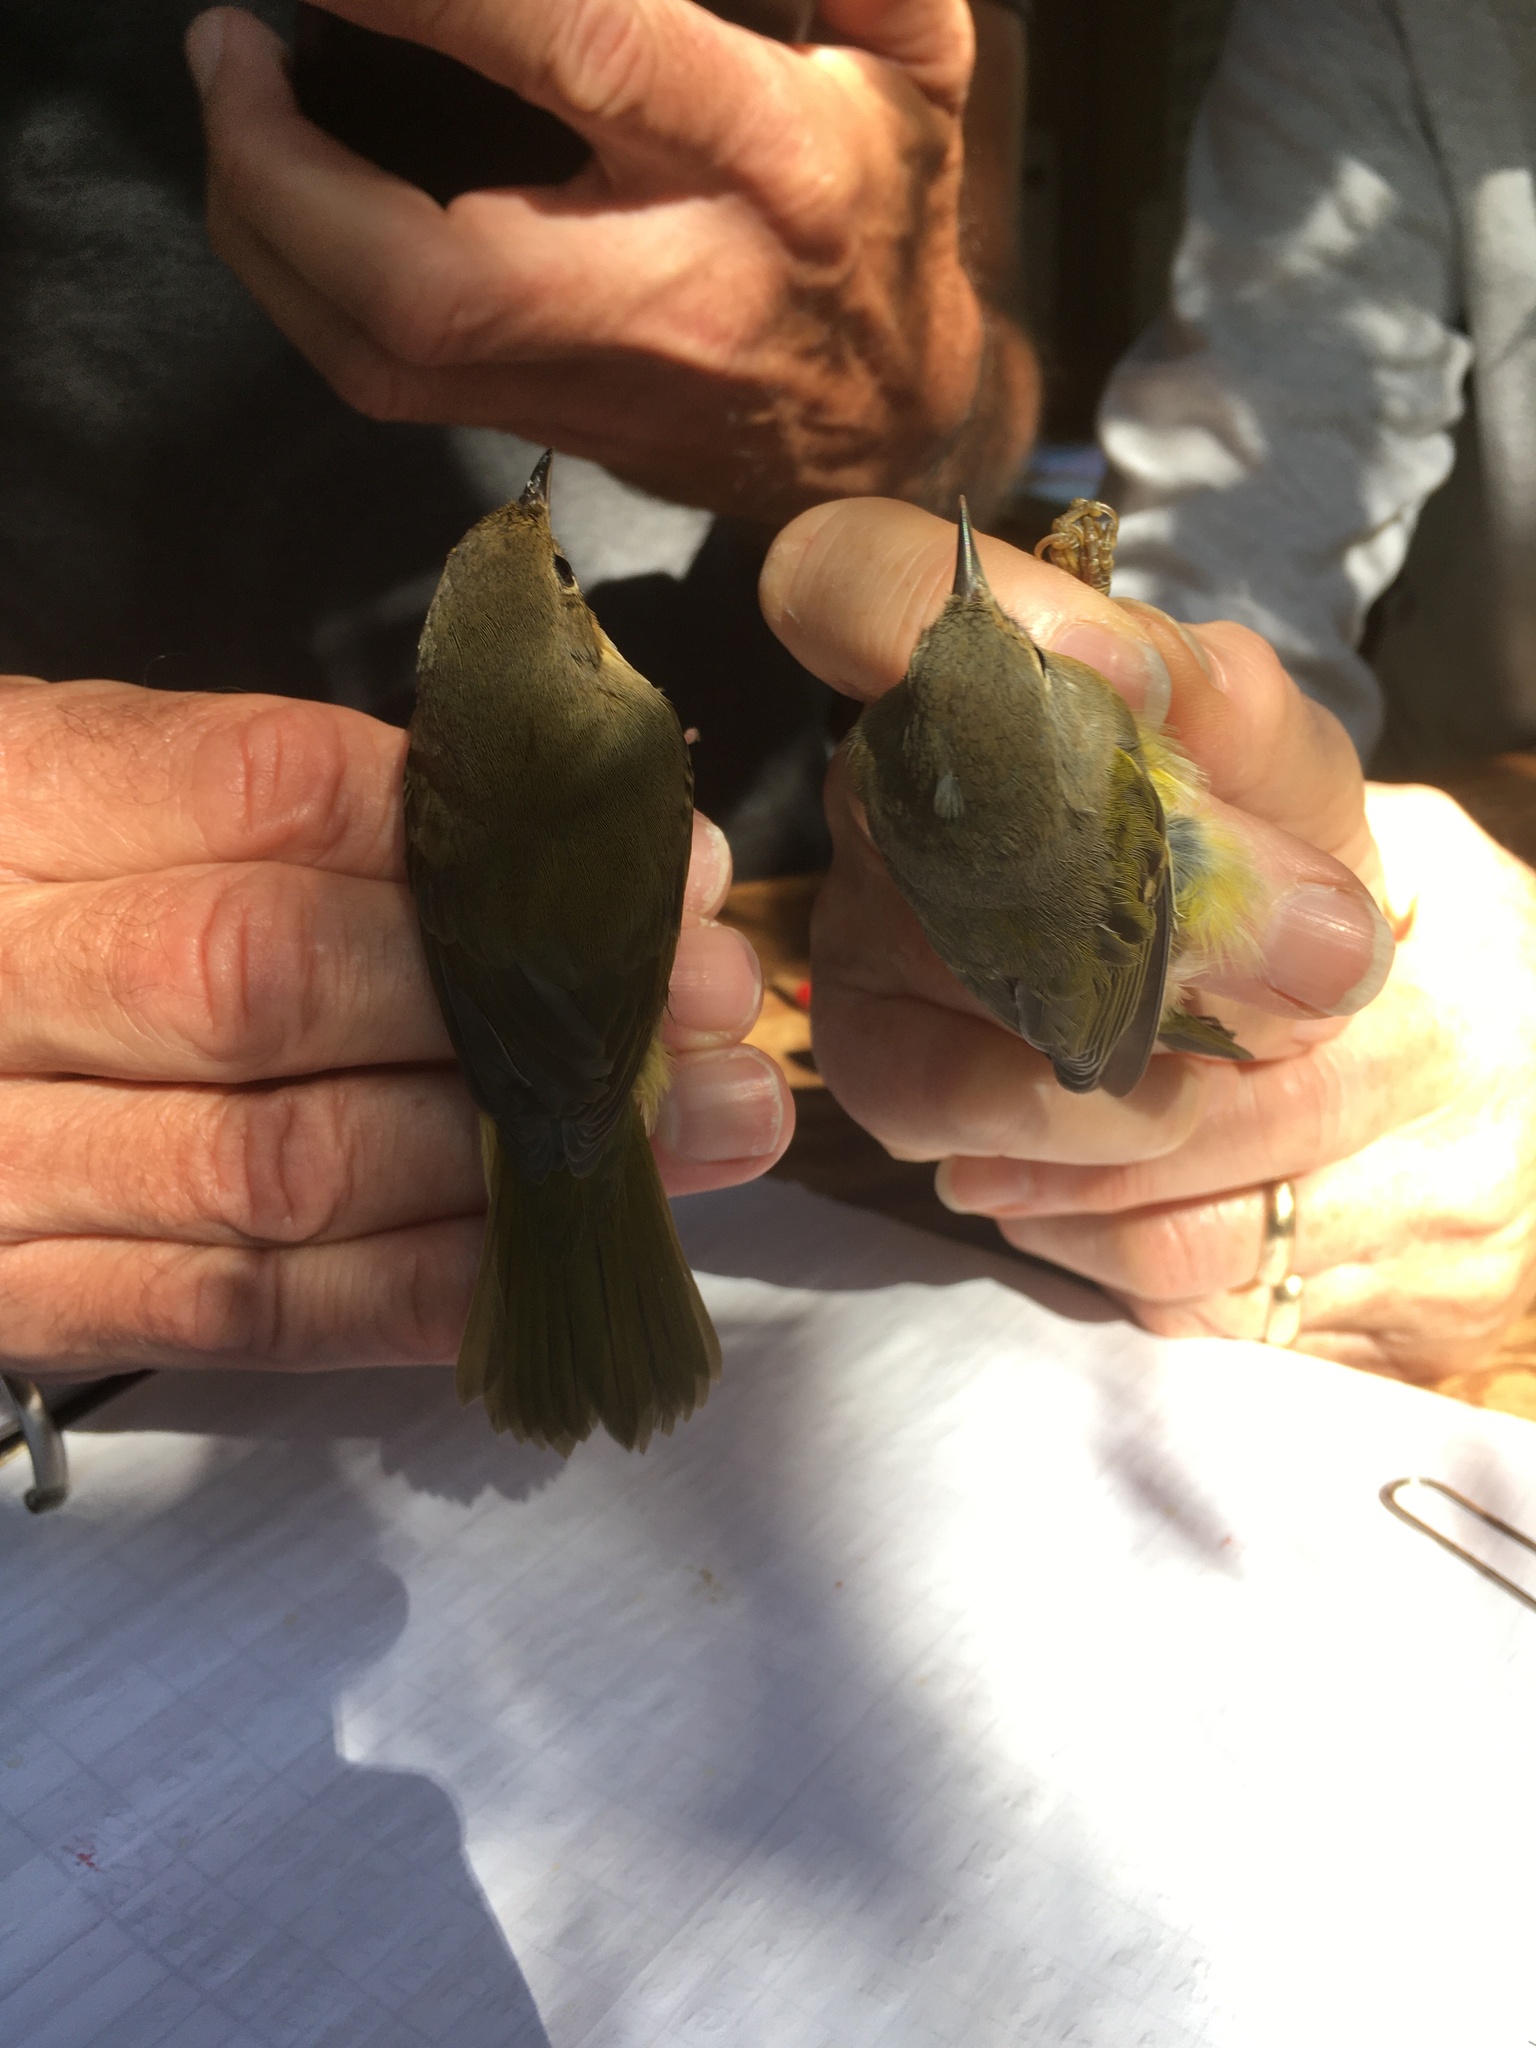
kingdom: Animalia
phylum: Chordata
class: Aves
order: Passeriformes
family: Parulidae
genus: Geothlypis
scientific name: Geothlypis trichas
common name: Common yellowthroat
